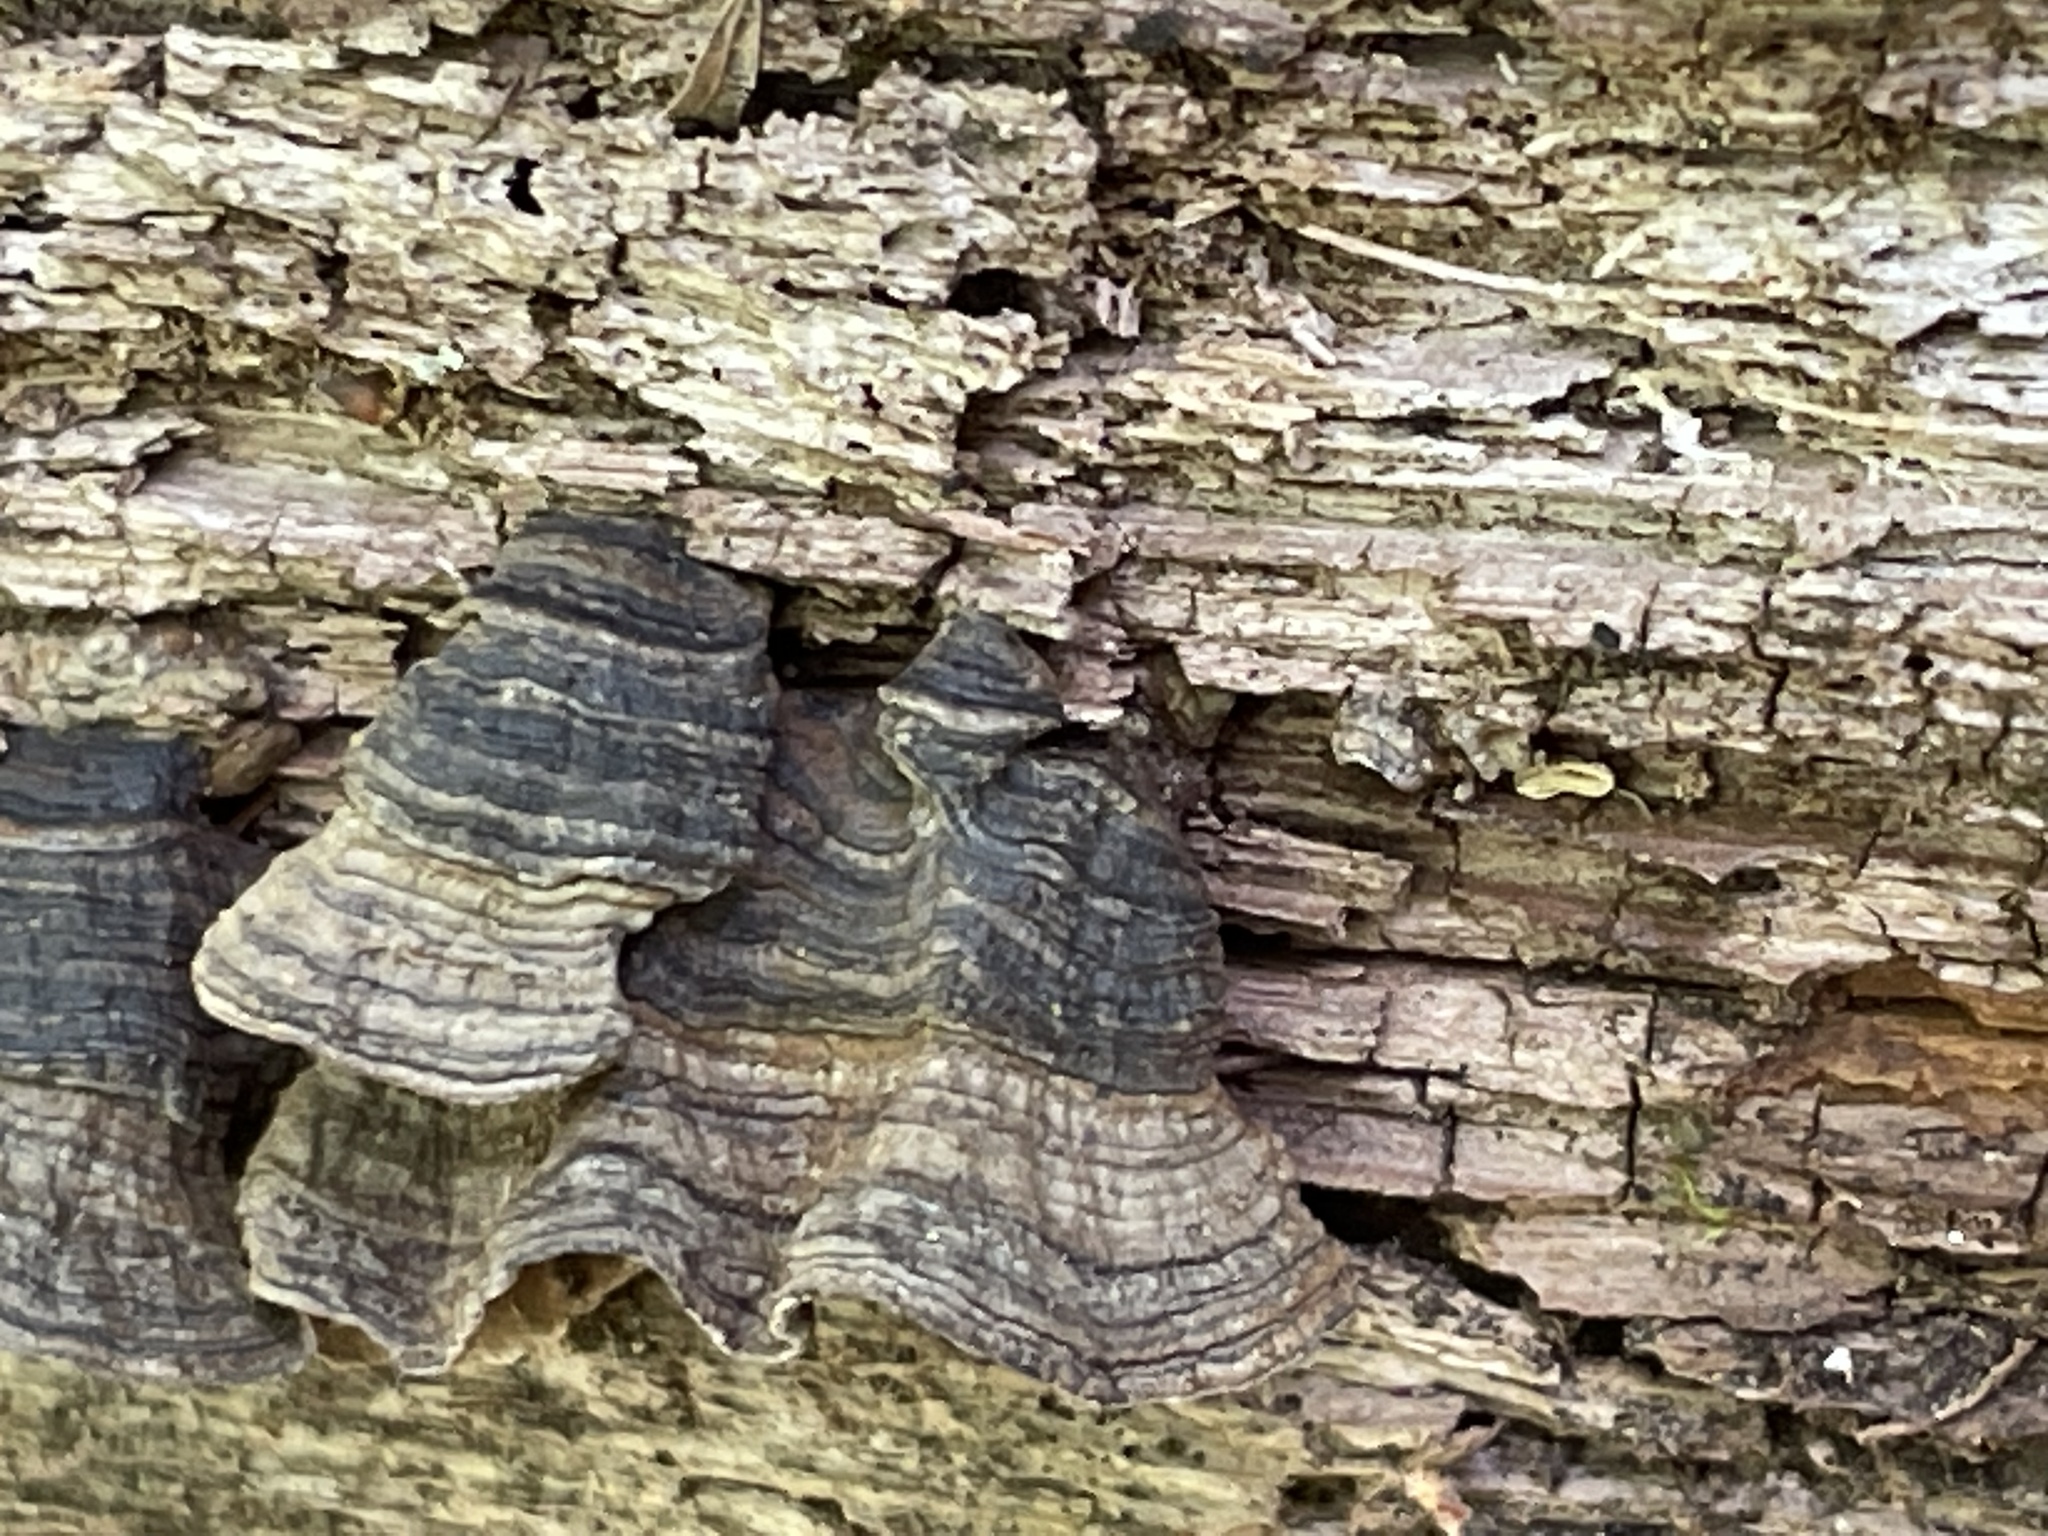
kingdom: Fungi
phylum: Basidiomycota
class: Agaricomycetes
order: Hymenochaetales
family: Hymenochaetaceae
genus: Hymenochaete
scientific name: Hymenochaete rubiginosa
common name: Oak curtain crust
